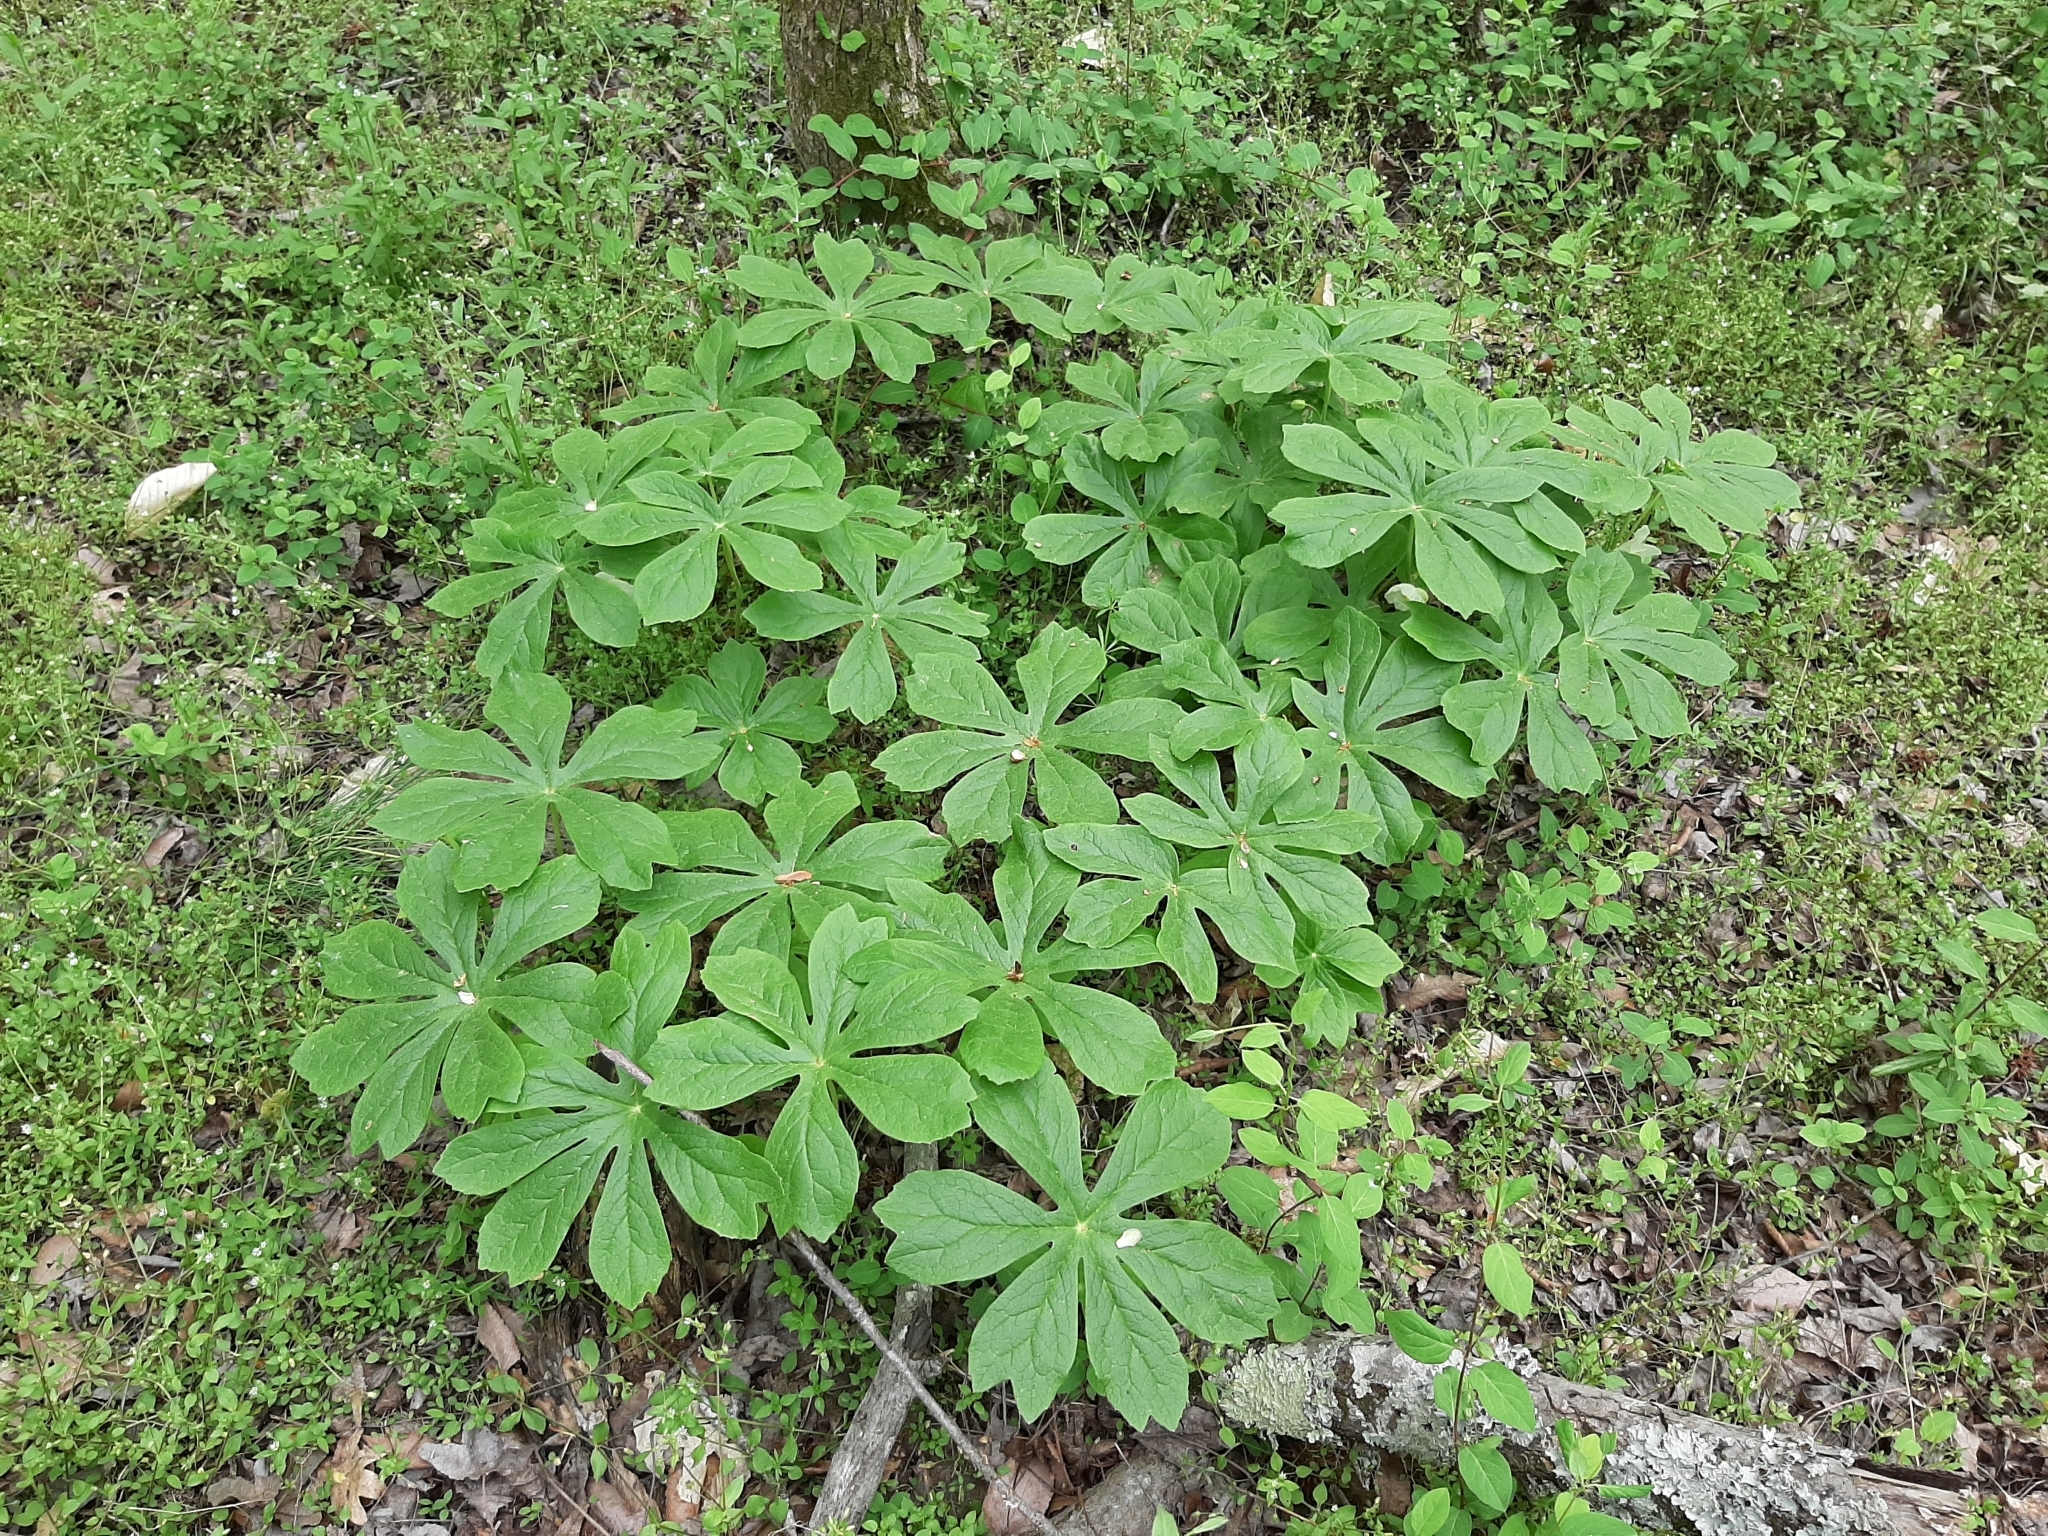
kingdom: Plantae
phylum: Tracheophyta
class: Magnoliopsida
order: Ranunculales
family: Berberidaceae
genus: Podophyllum
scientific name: Podophyllum peltatum
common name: Wild mandrake
